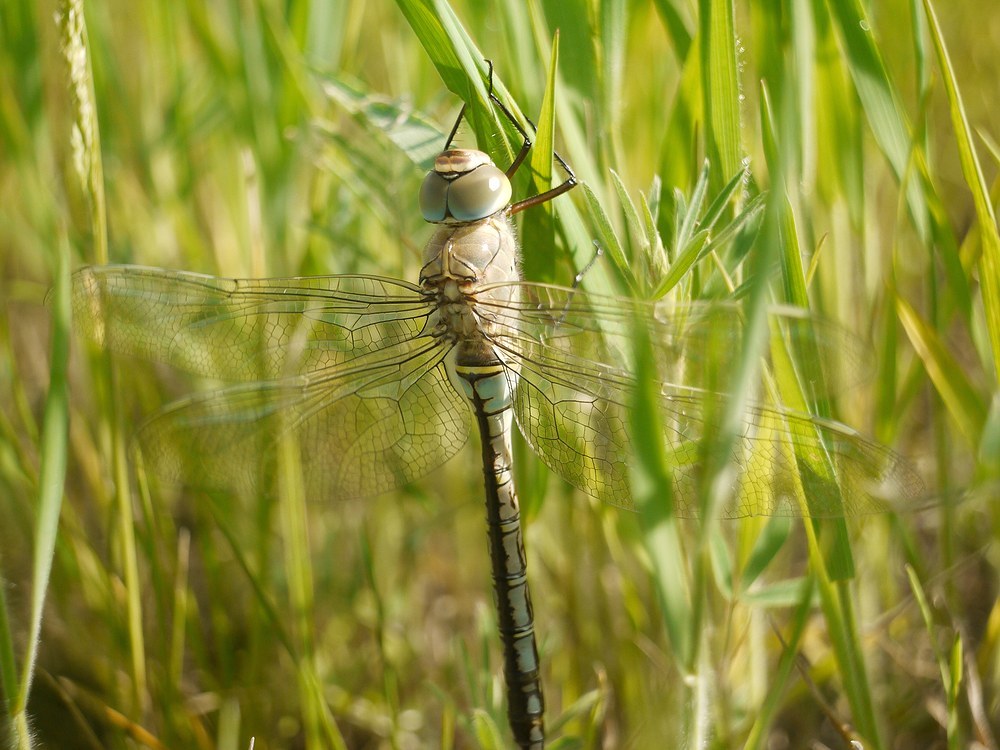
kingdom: Animalia
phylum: Arthropoda
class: Insecta
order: Odonata
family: Aeshnidae
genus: Anax
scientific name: Anax parthenope
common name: Lesser emperor
